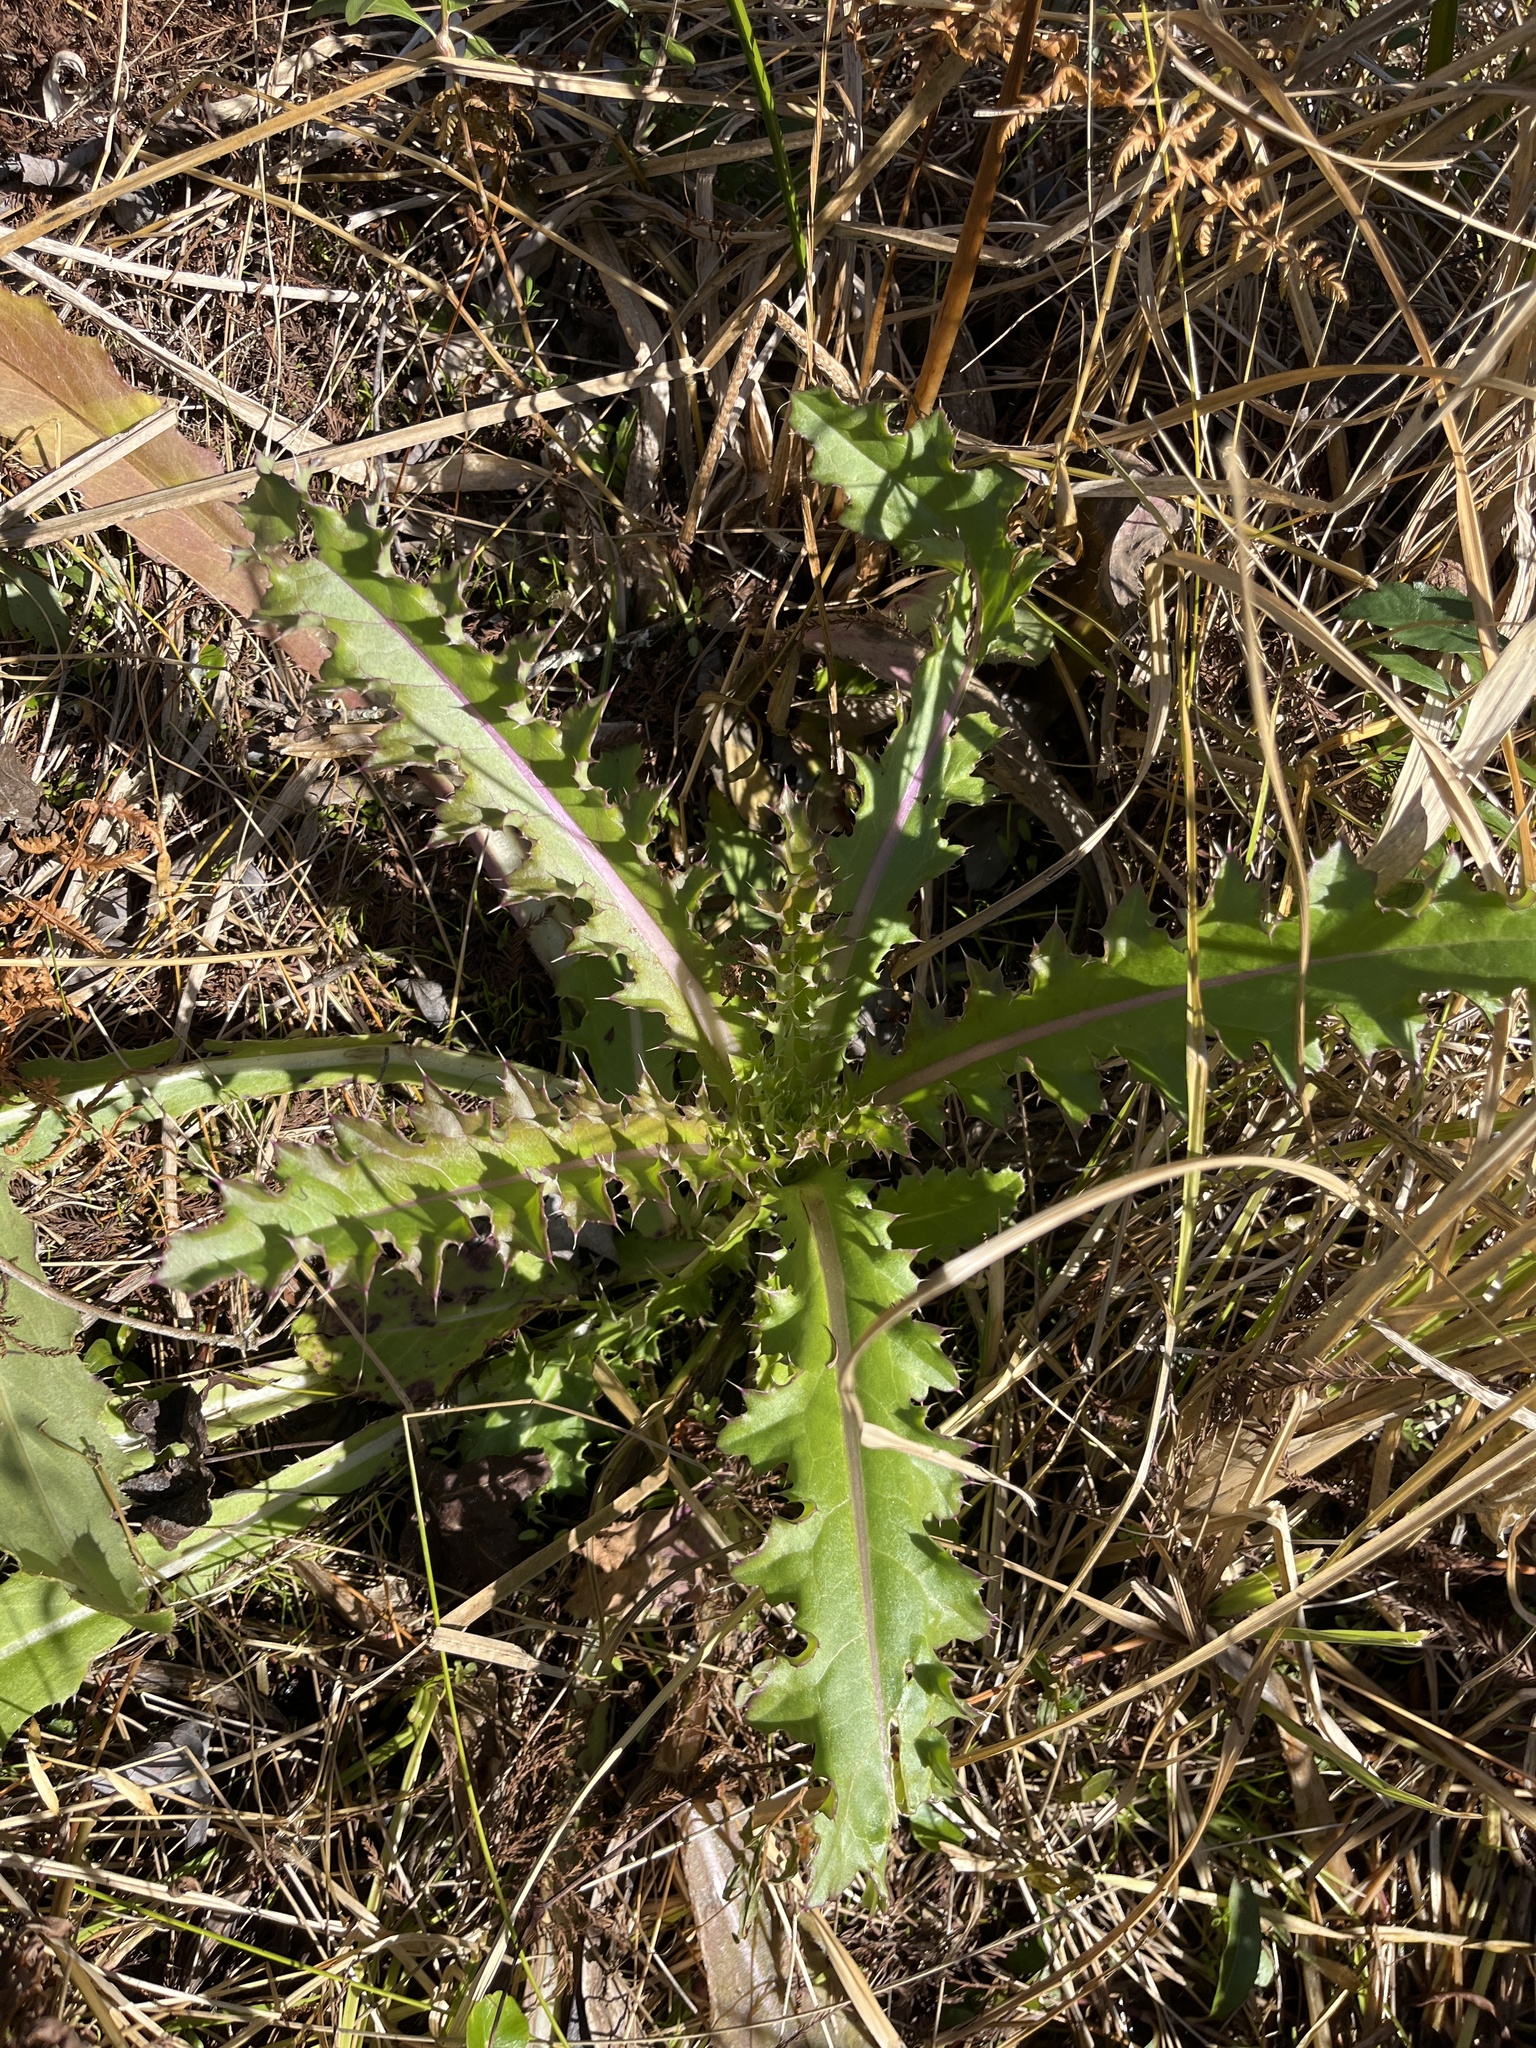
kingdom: Plantae
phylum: Tracheophyta
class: Magnoliopsida
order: Asterales
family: Asteraceae
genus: Cirsium
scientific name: Cirsium horridulum
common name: Bristly thistle
